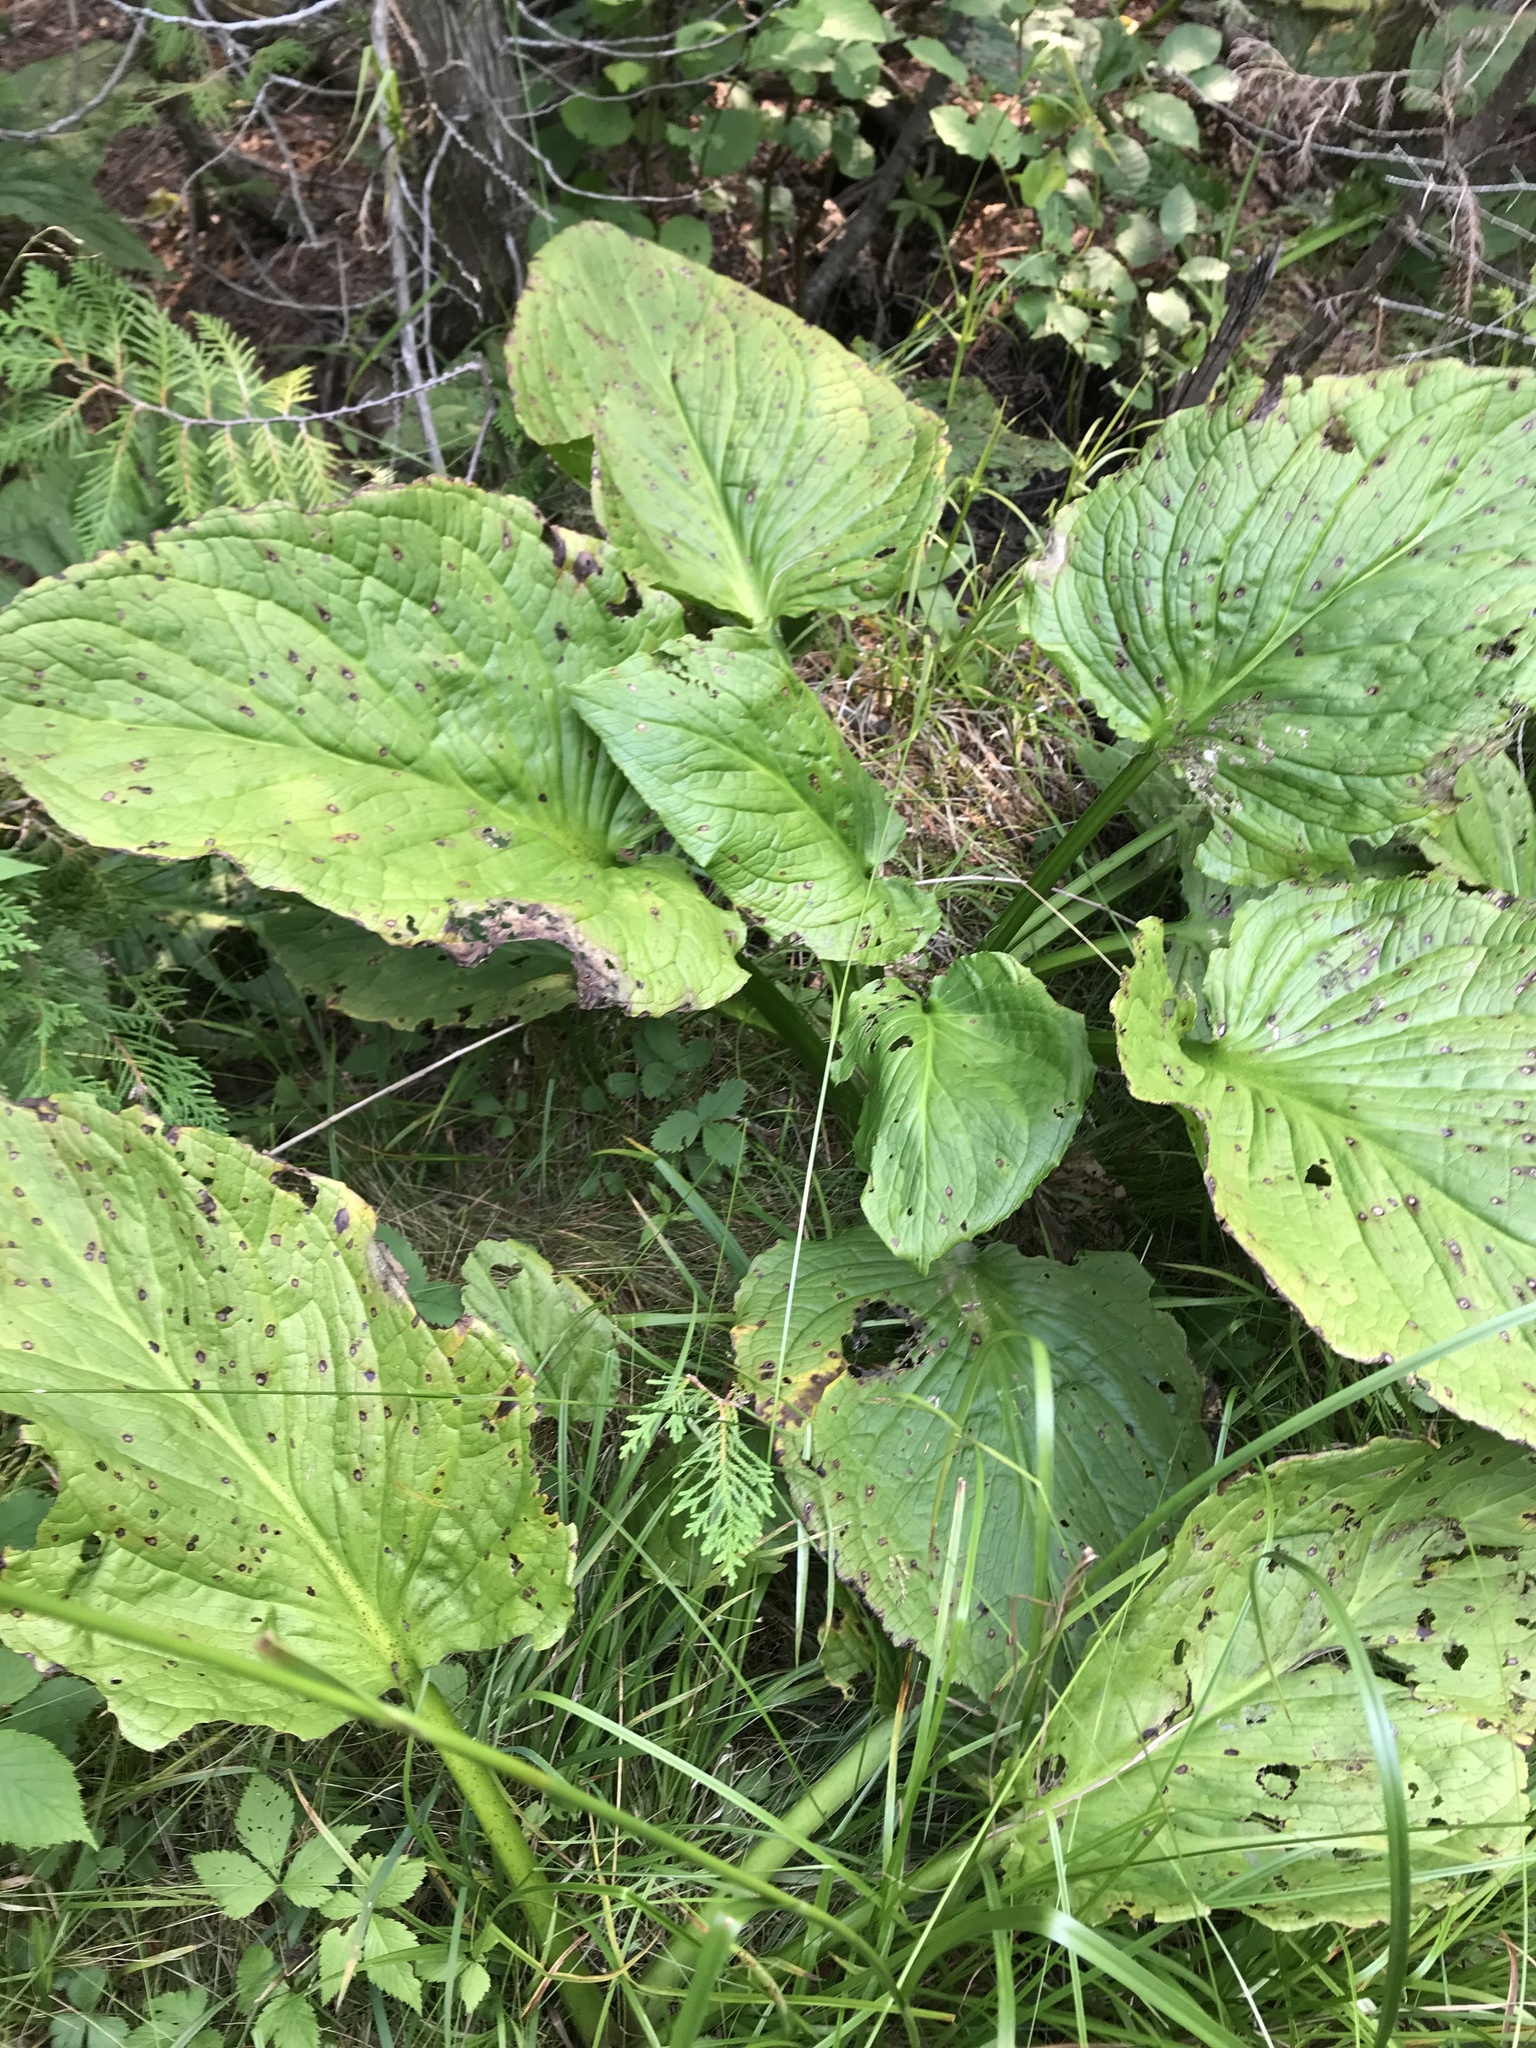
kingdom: Plantae
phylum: Tracheophyta
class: Liliopsida
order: Alismatales
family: Araceae
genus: Symplocarpus
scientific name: Symplocarpus foetidus
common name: Eastern skunk cabbage
